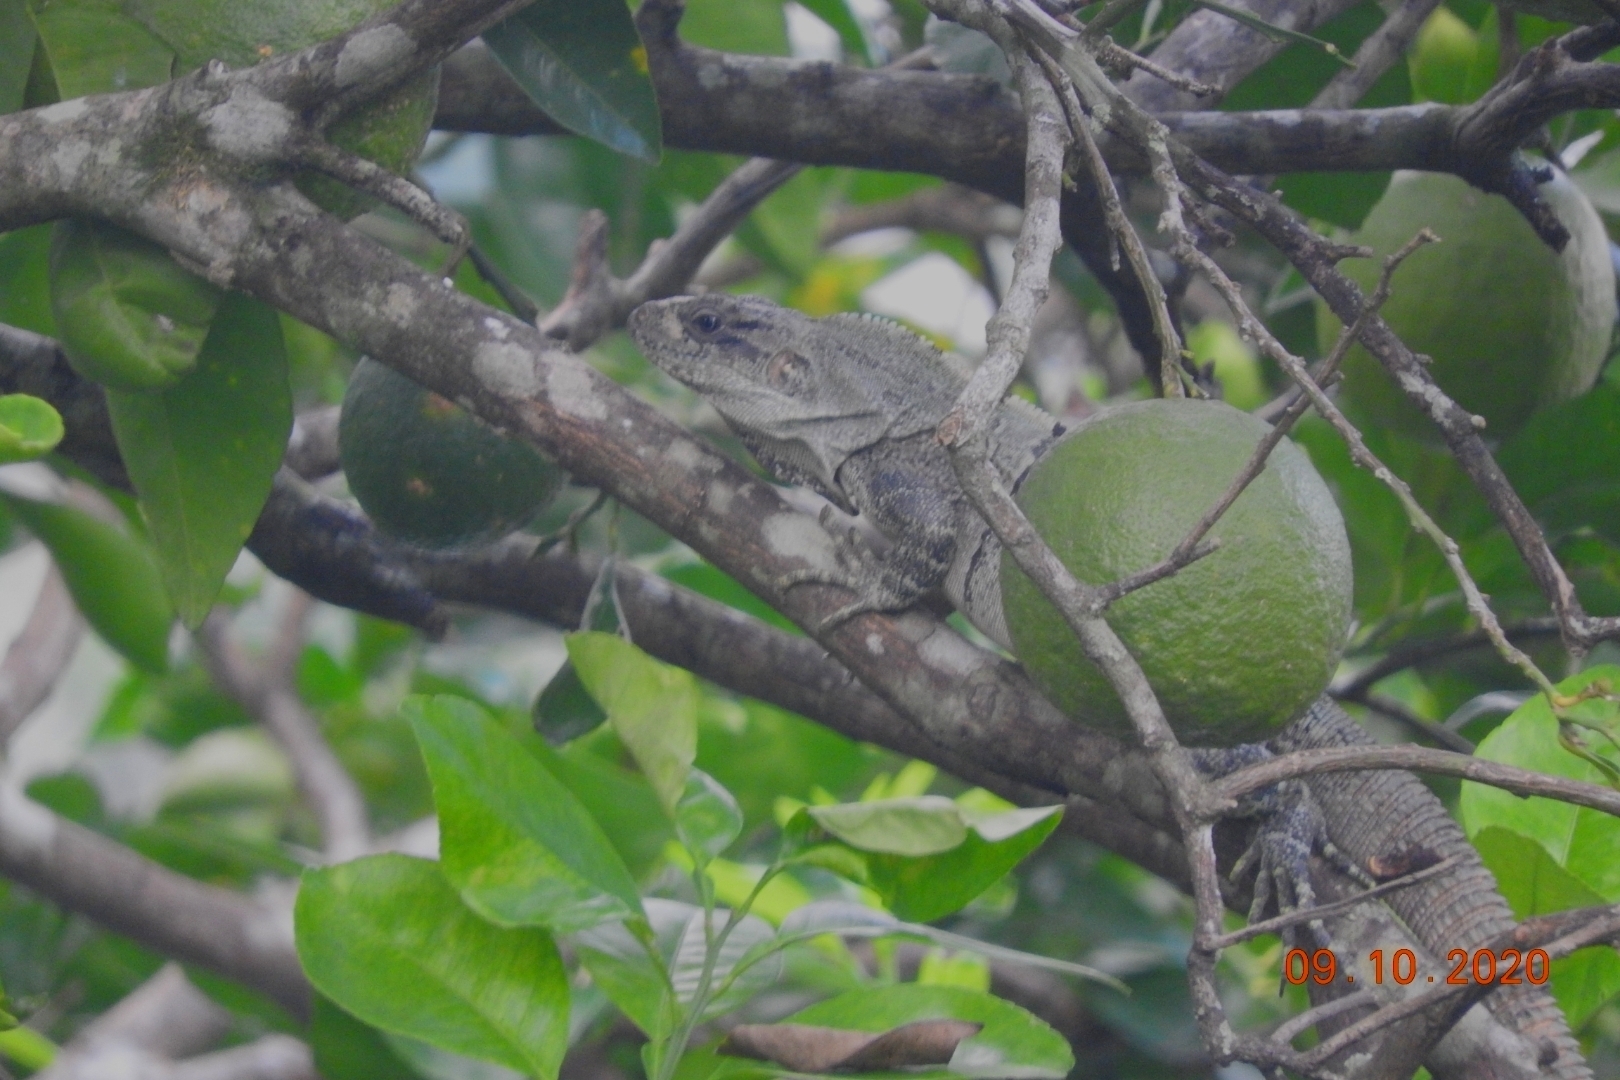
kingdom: Animalia
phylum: Chordata
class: Squamata
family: Iguanidae
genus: Ctenosaura
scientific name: Ctenosaura similis
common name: Black spiny-tailed iguana
